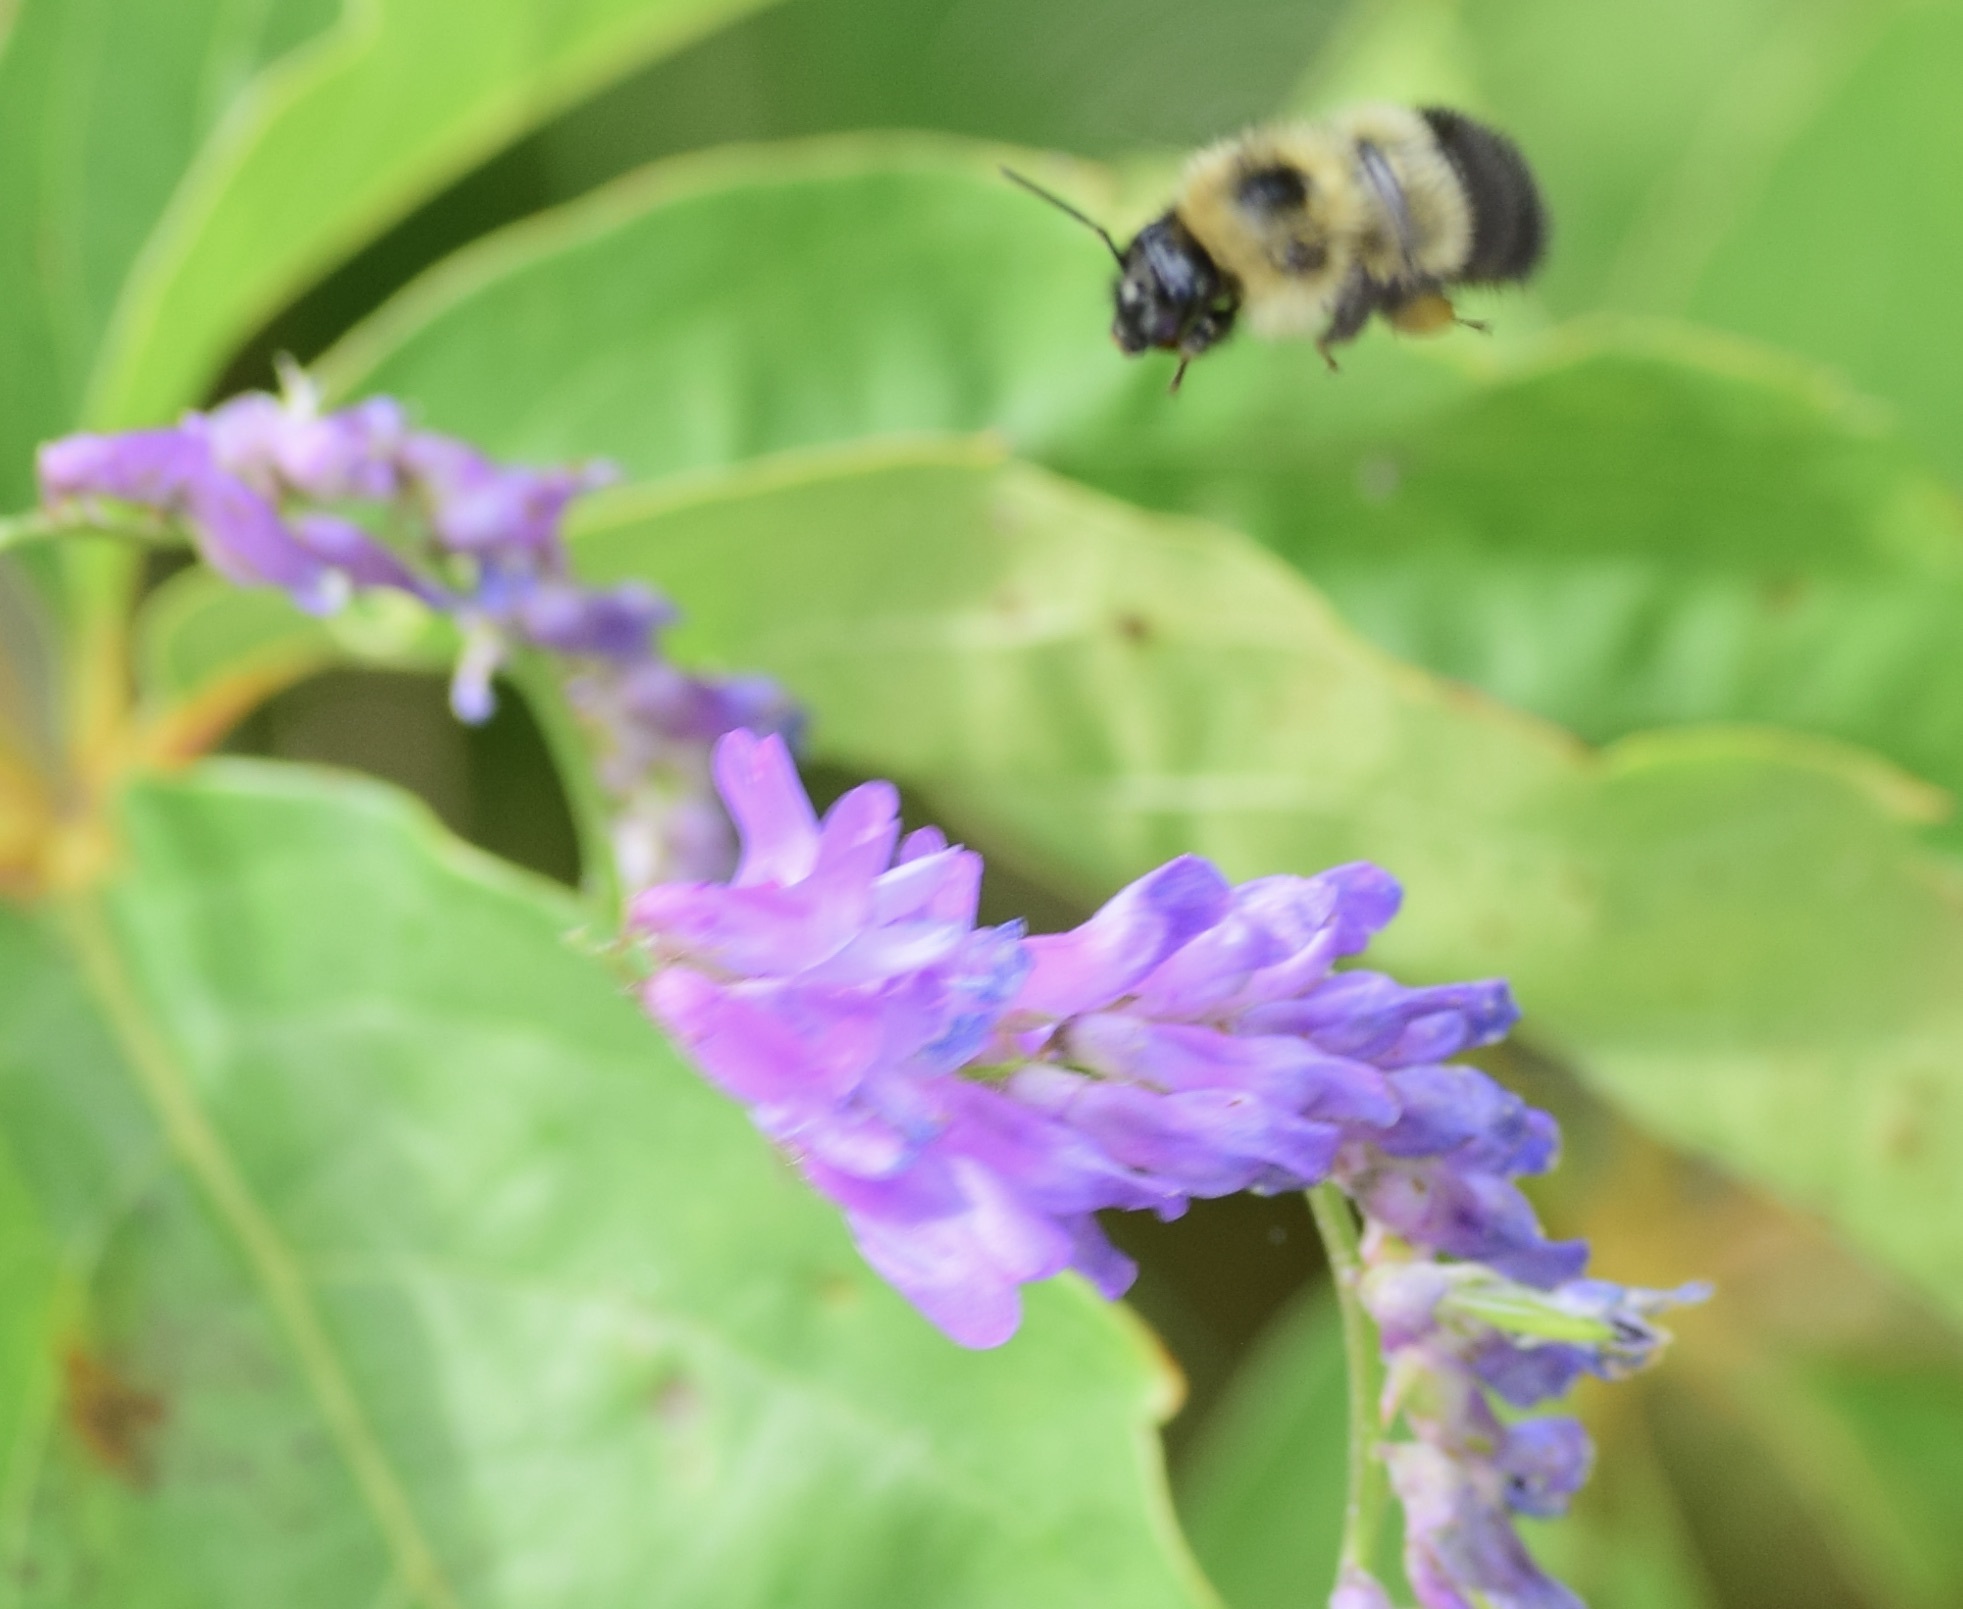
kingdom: Animalia
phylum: Arthropoda
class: Insecta
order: Hymenoptera
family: Apidae
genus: Pyrobombus
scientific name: Pyrobombus
